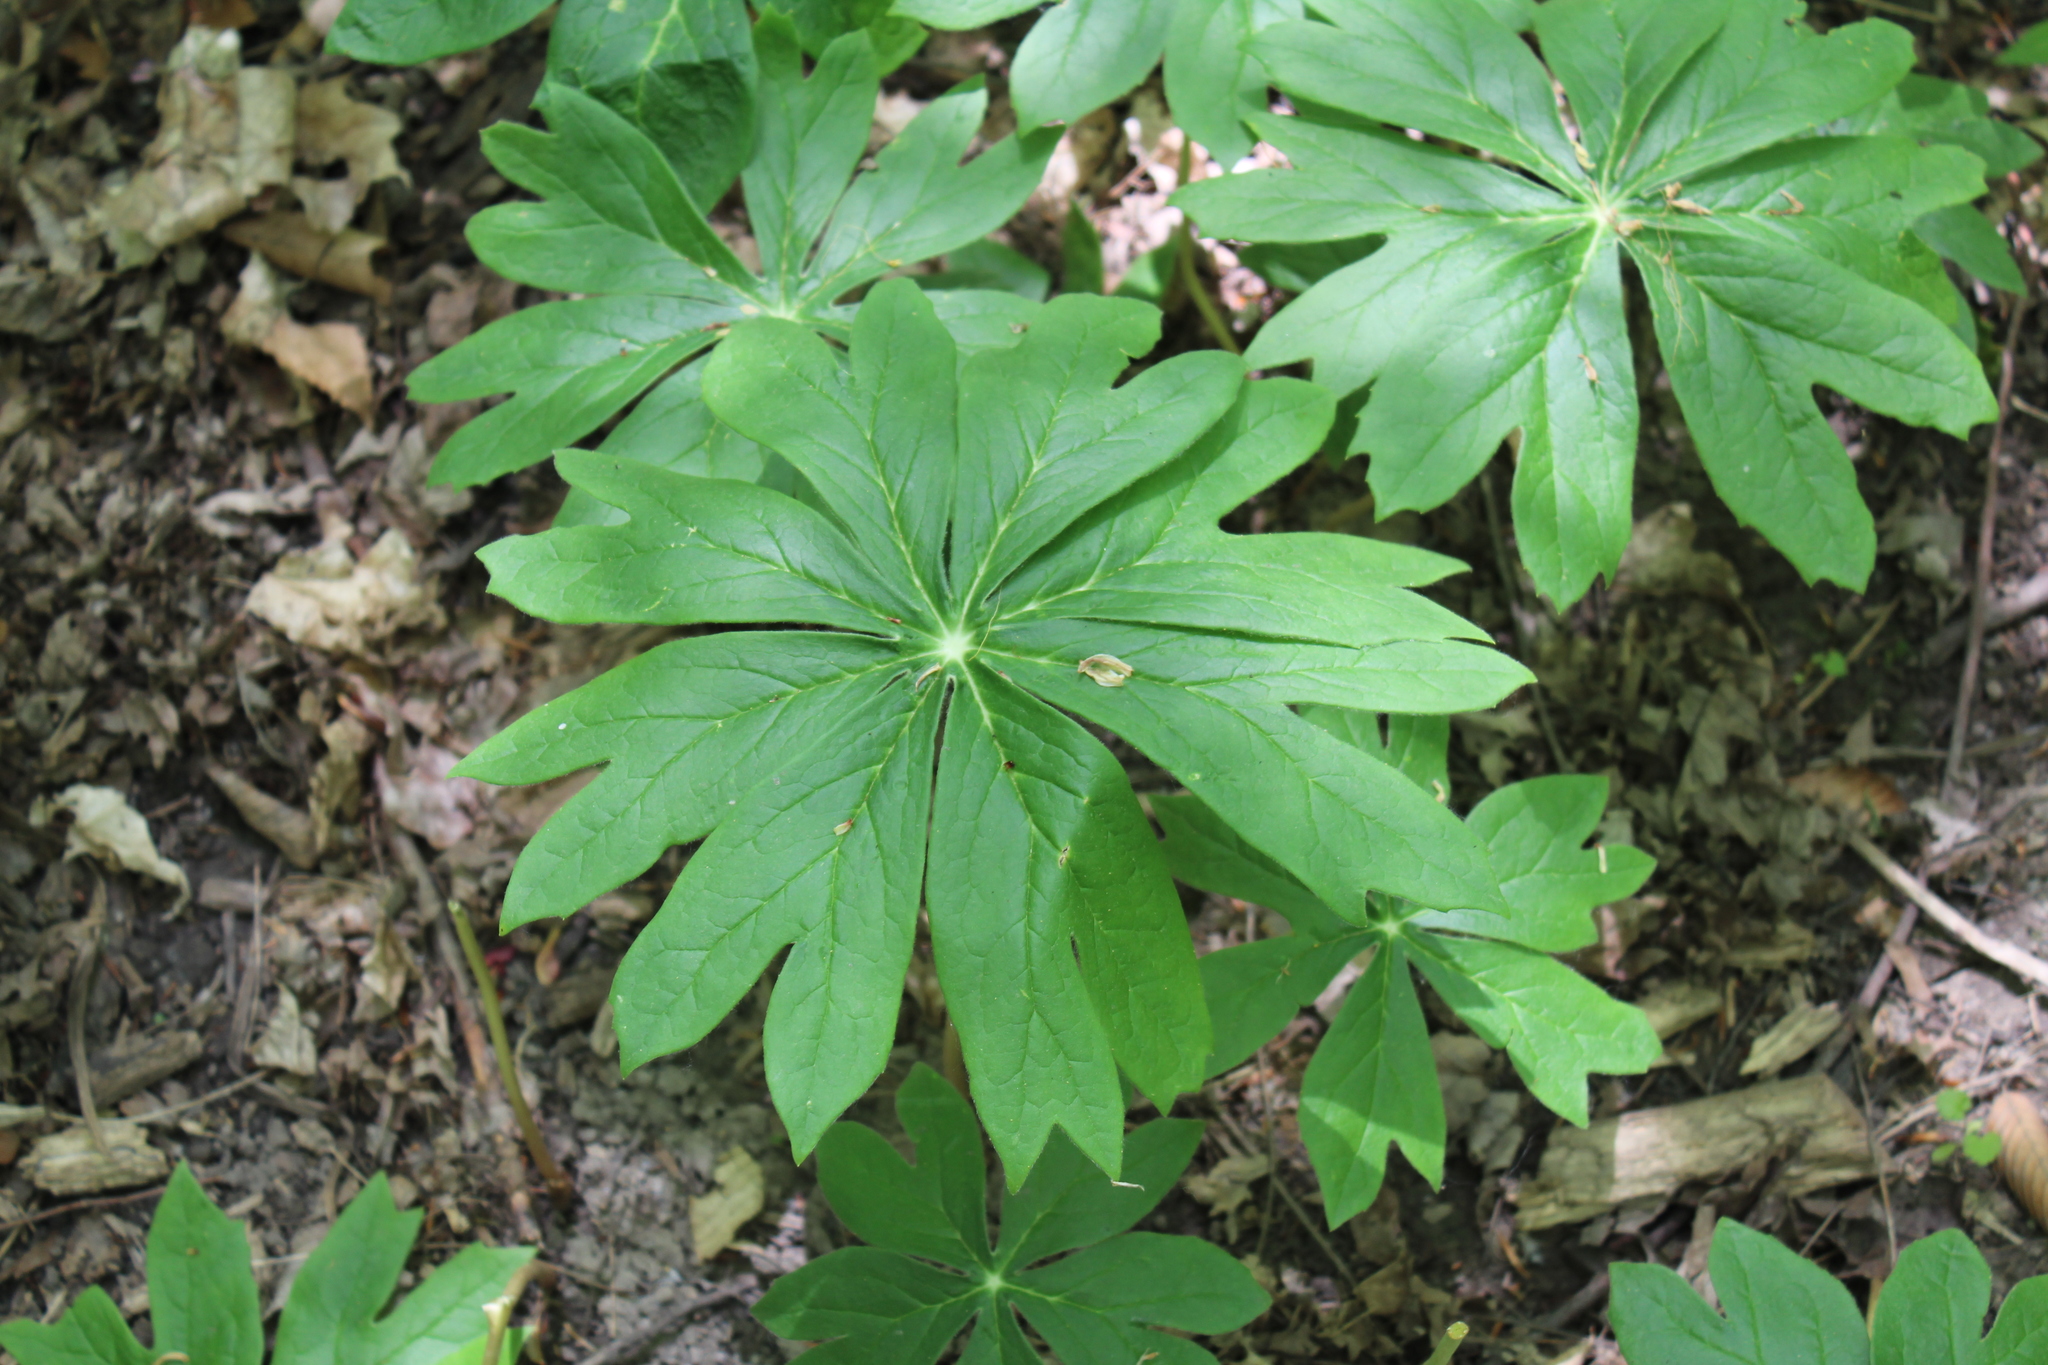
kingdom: Plantae
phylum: Tracheophyta
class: Magnoliopsida
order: Ranunculales
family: Berberidaceae
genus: Podophyllum
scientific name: Podophyllum peltatum
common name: Wild mandrake
